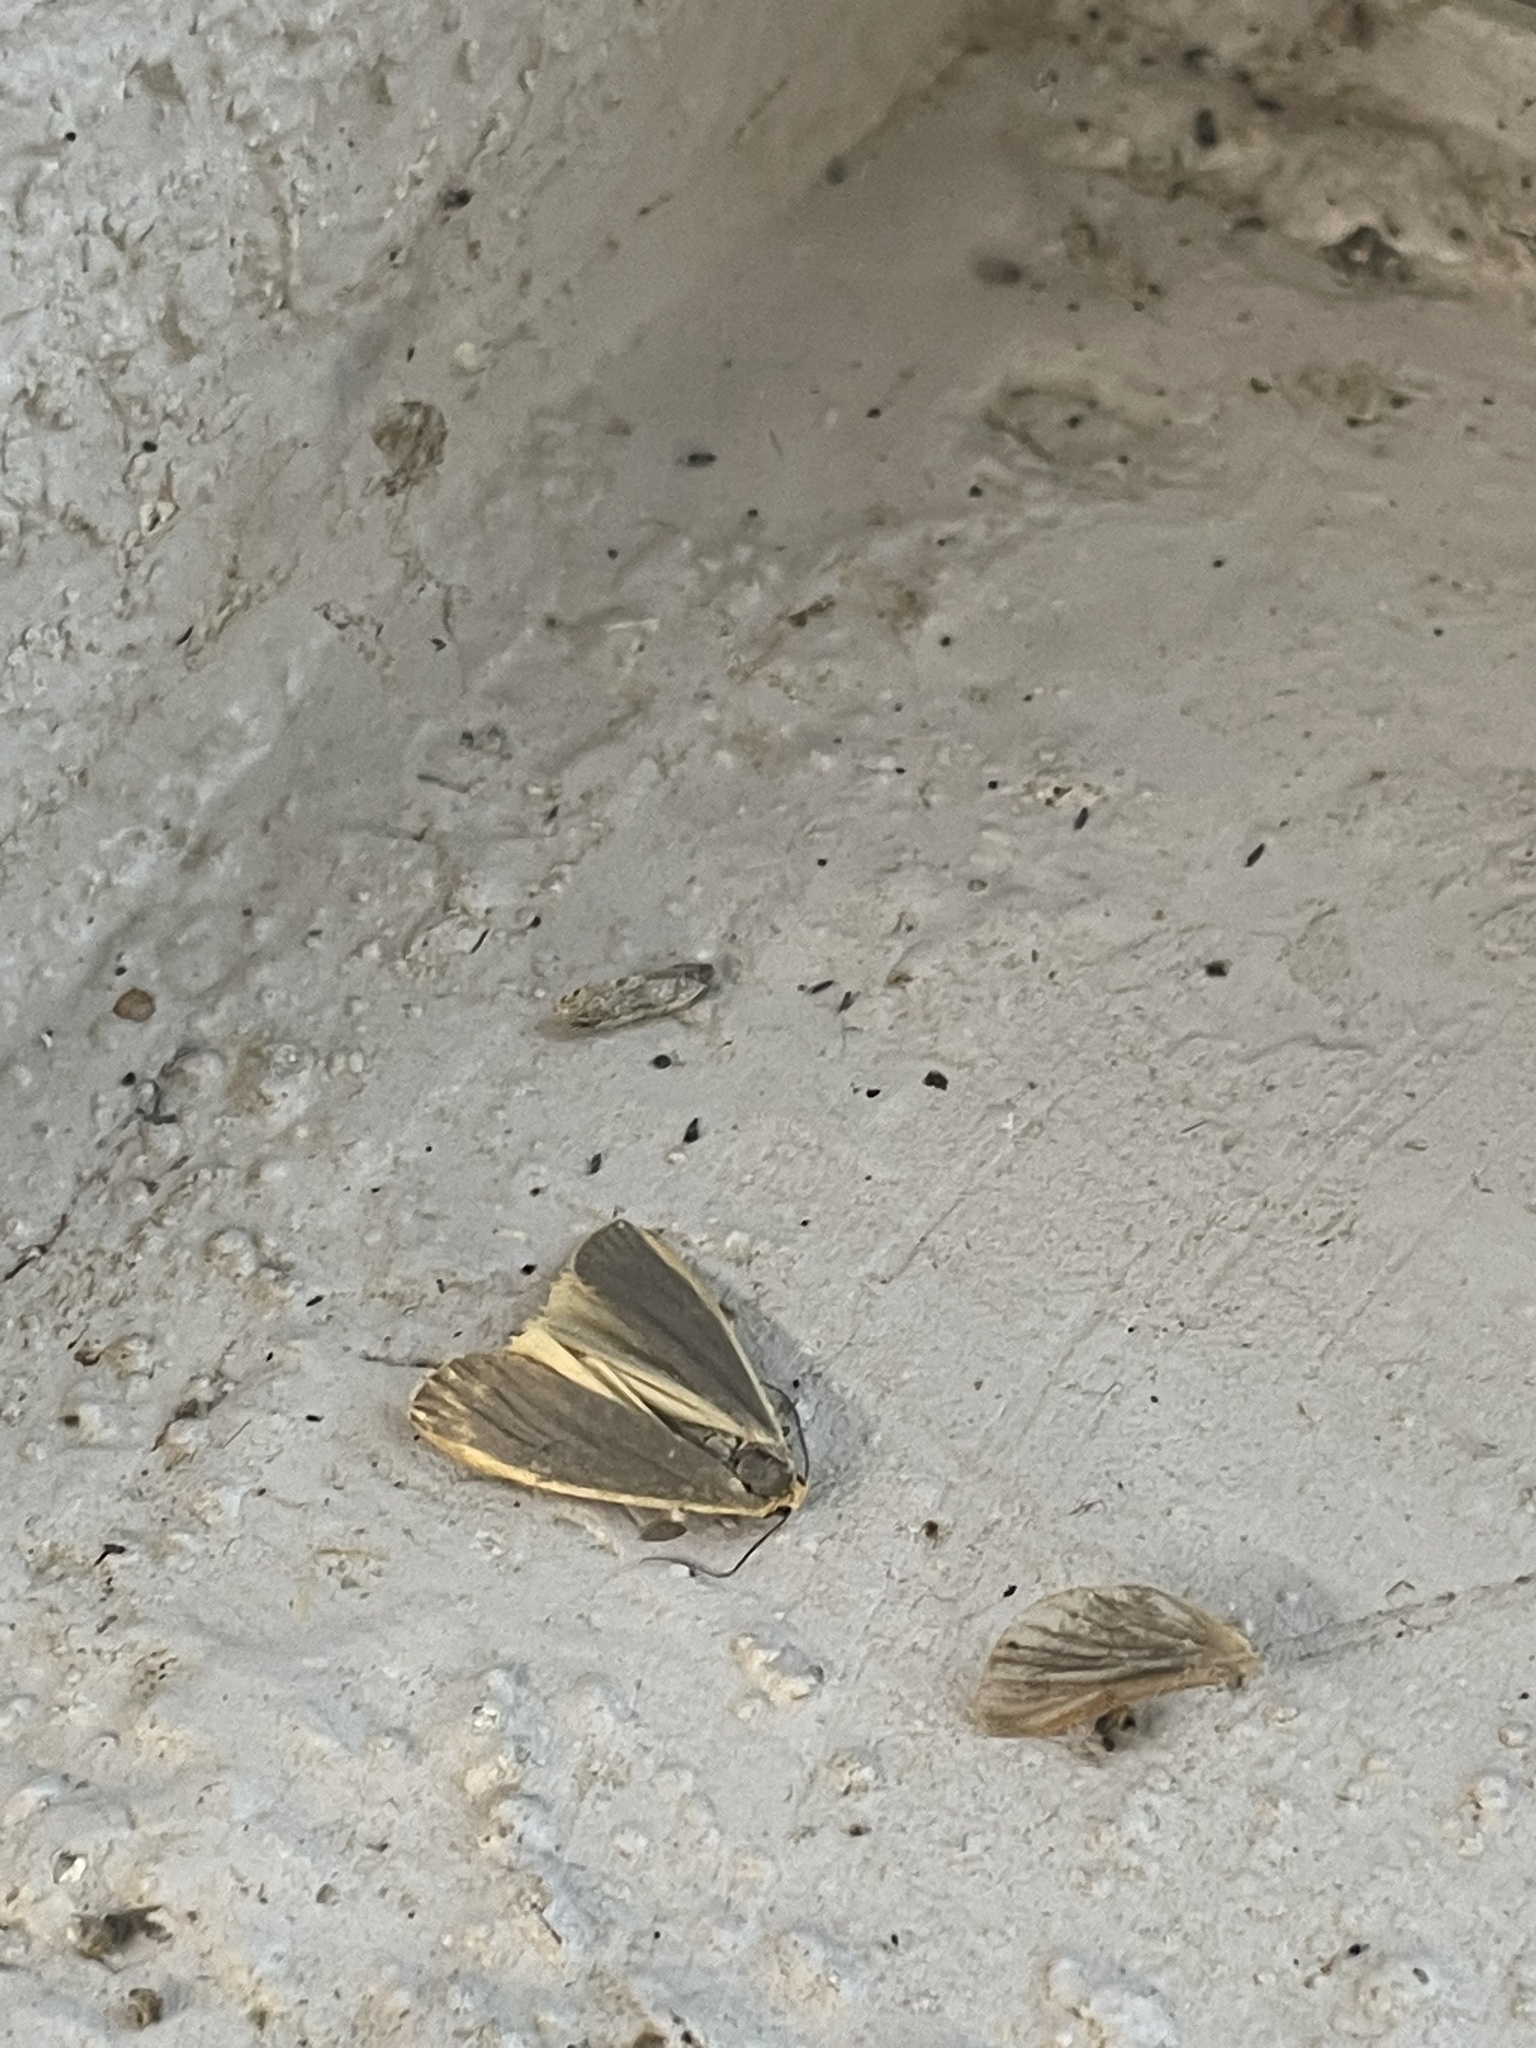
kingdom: Animalia
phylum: Arthropoda
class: Insecta
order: Lepidoptera
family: Erebidae
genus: Nyea
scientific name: Nyea lurideola
